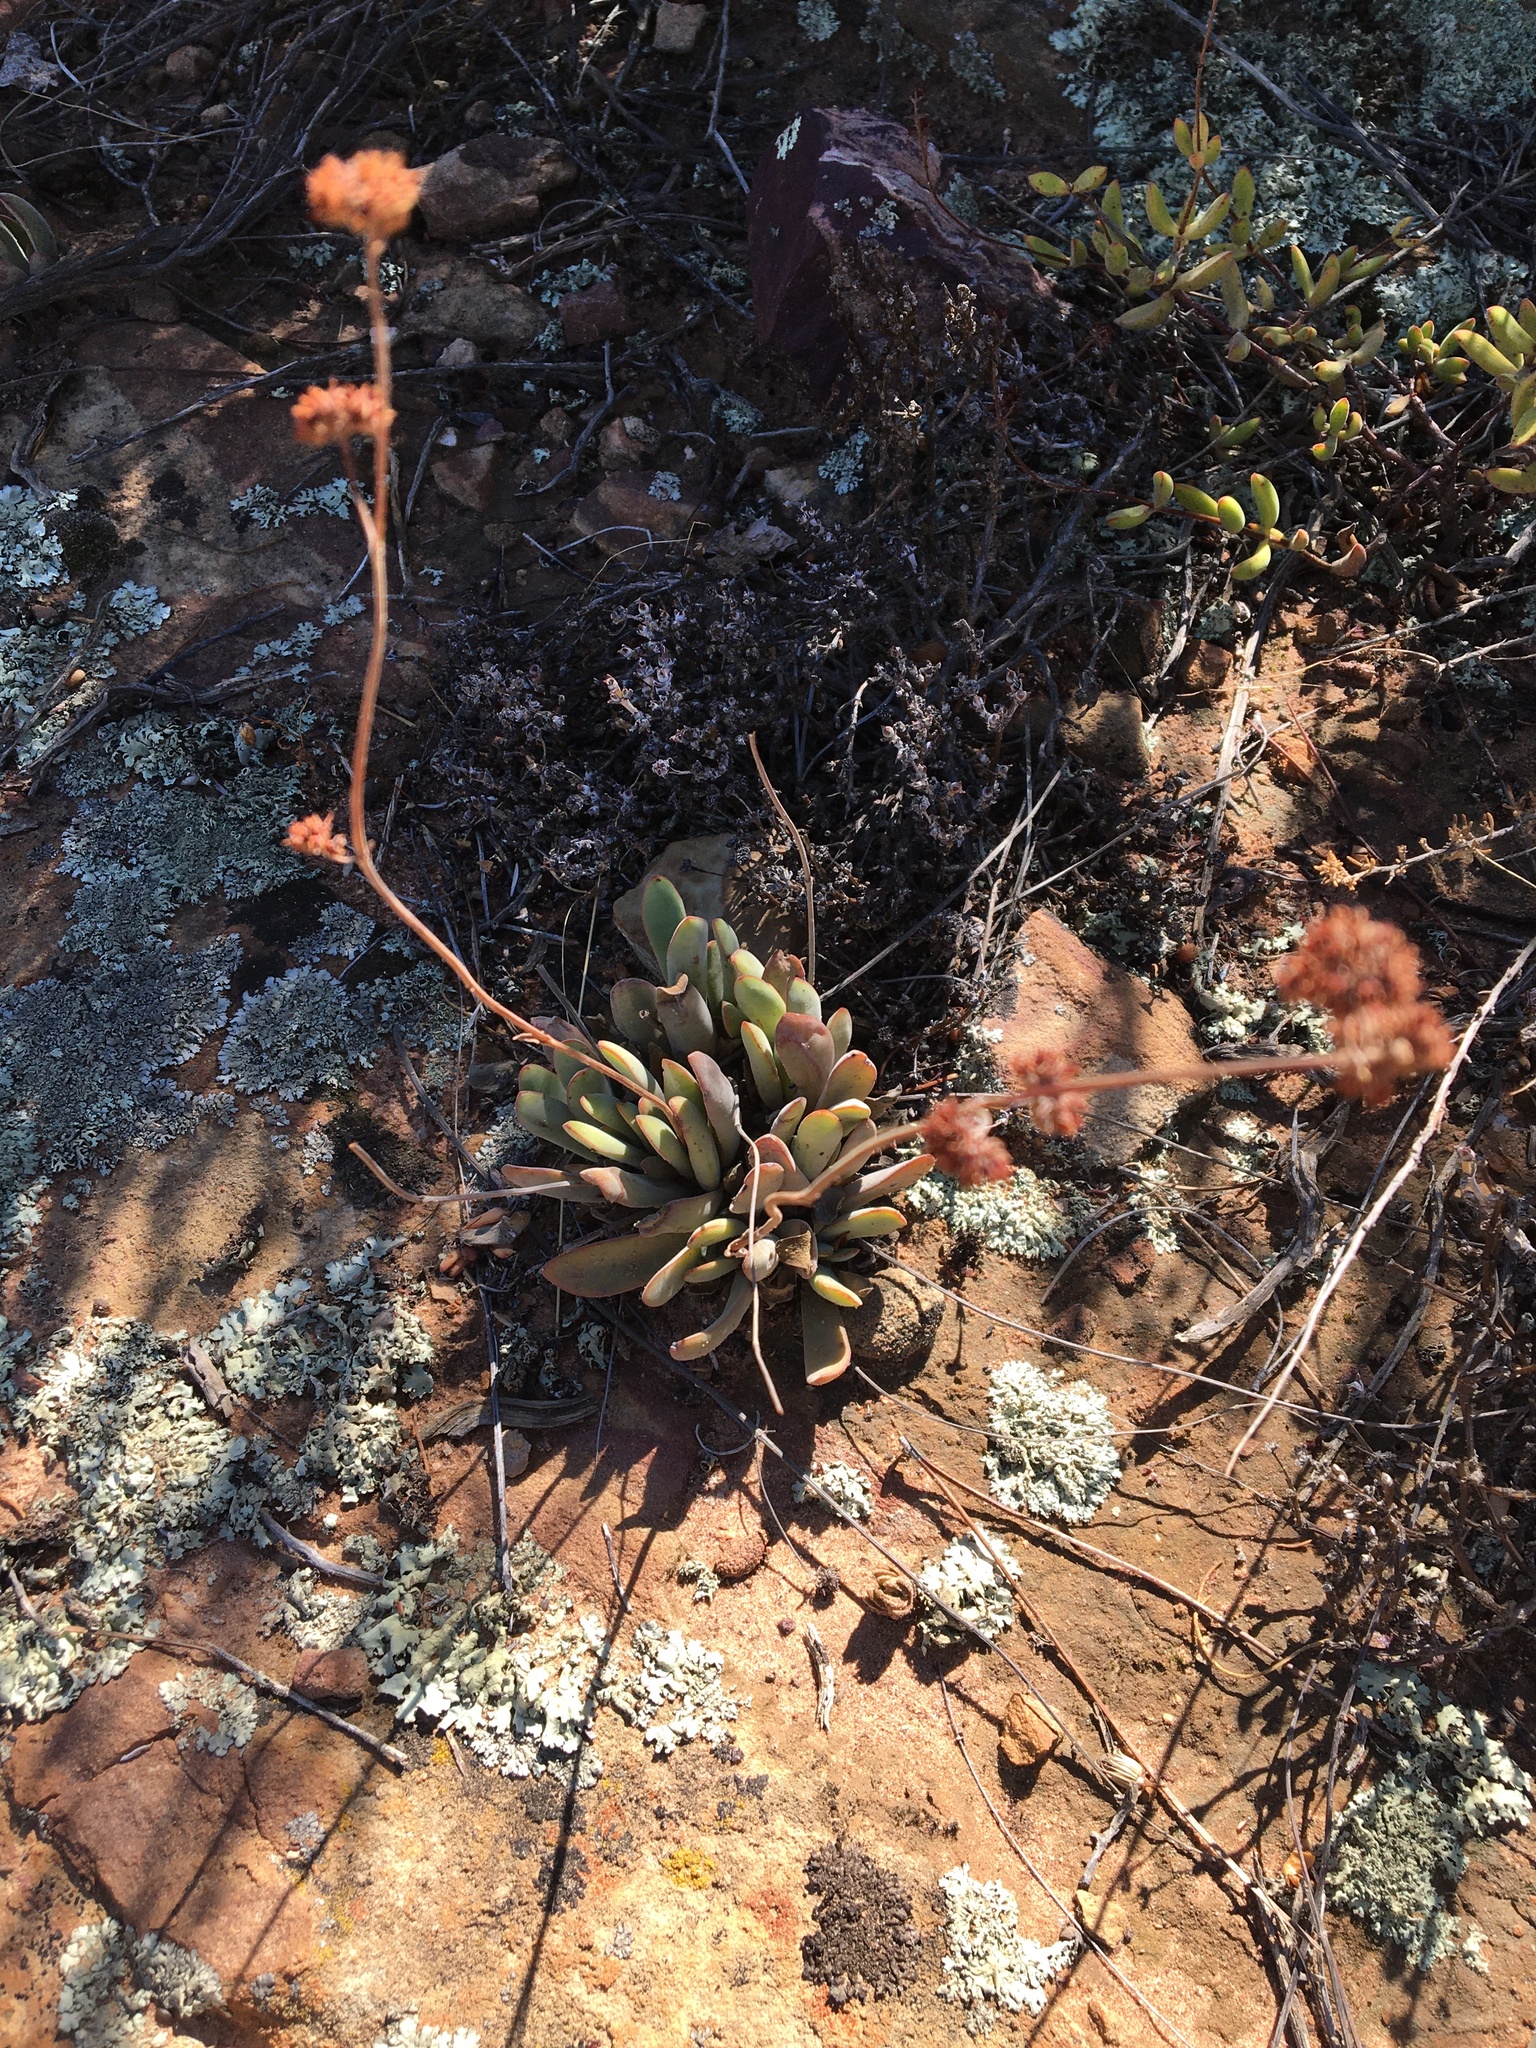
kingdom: Plantae
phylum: Tracheophyta
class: Magnoliopsida
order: Saxifragales
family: Crassulaceae
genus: Crassula
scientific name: Crassula nudicaulis
